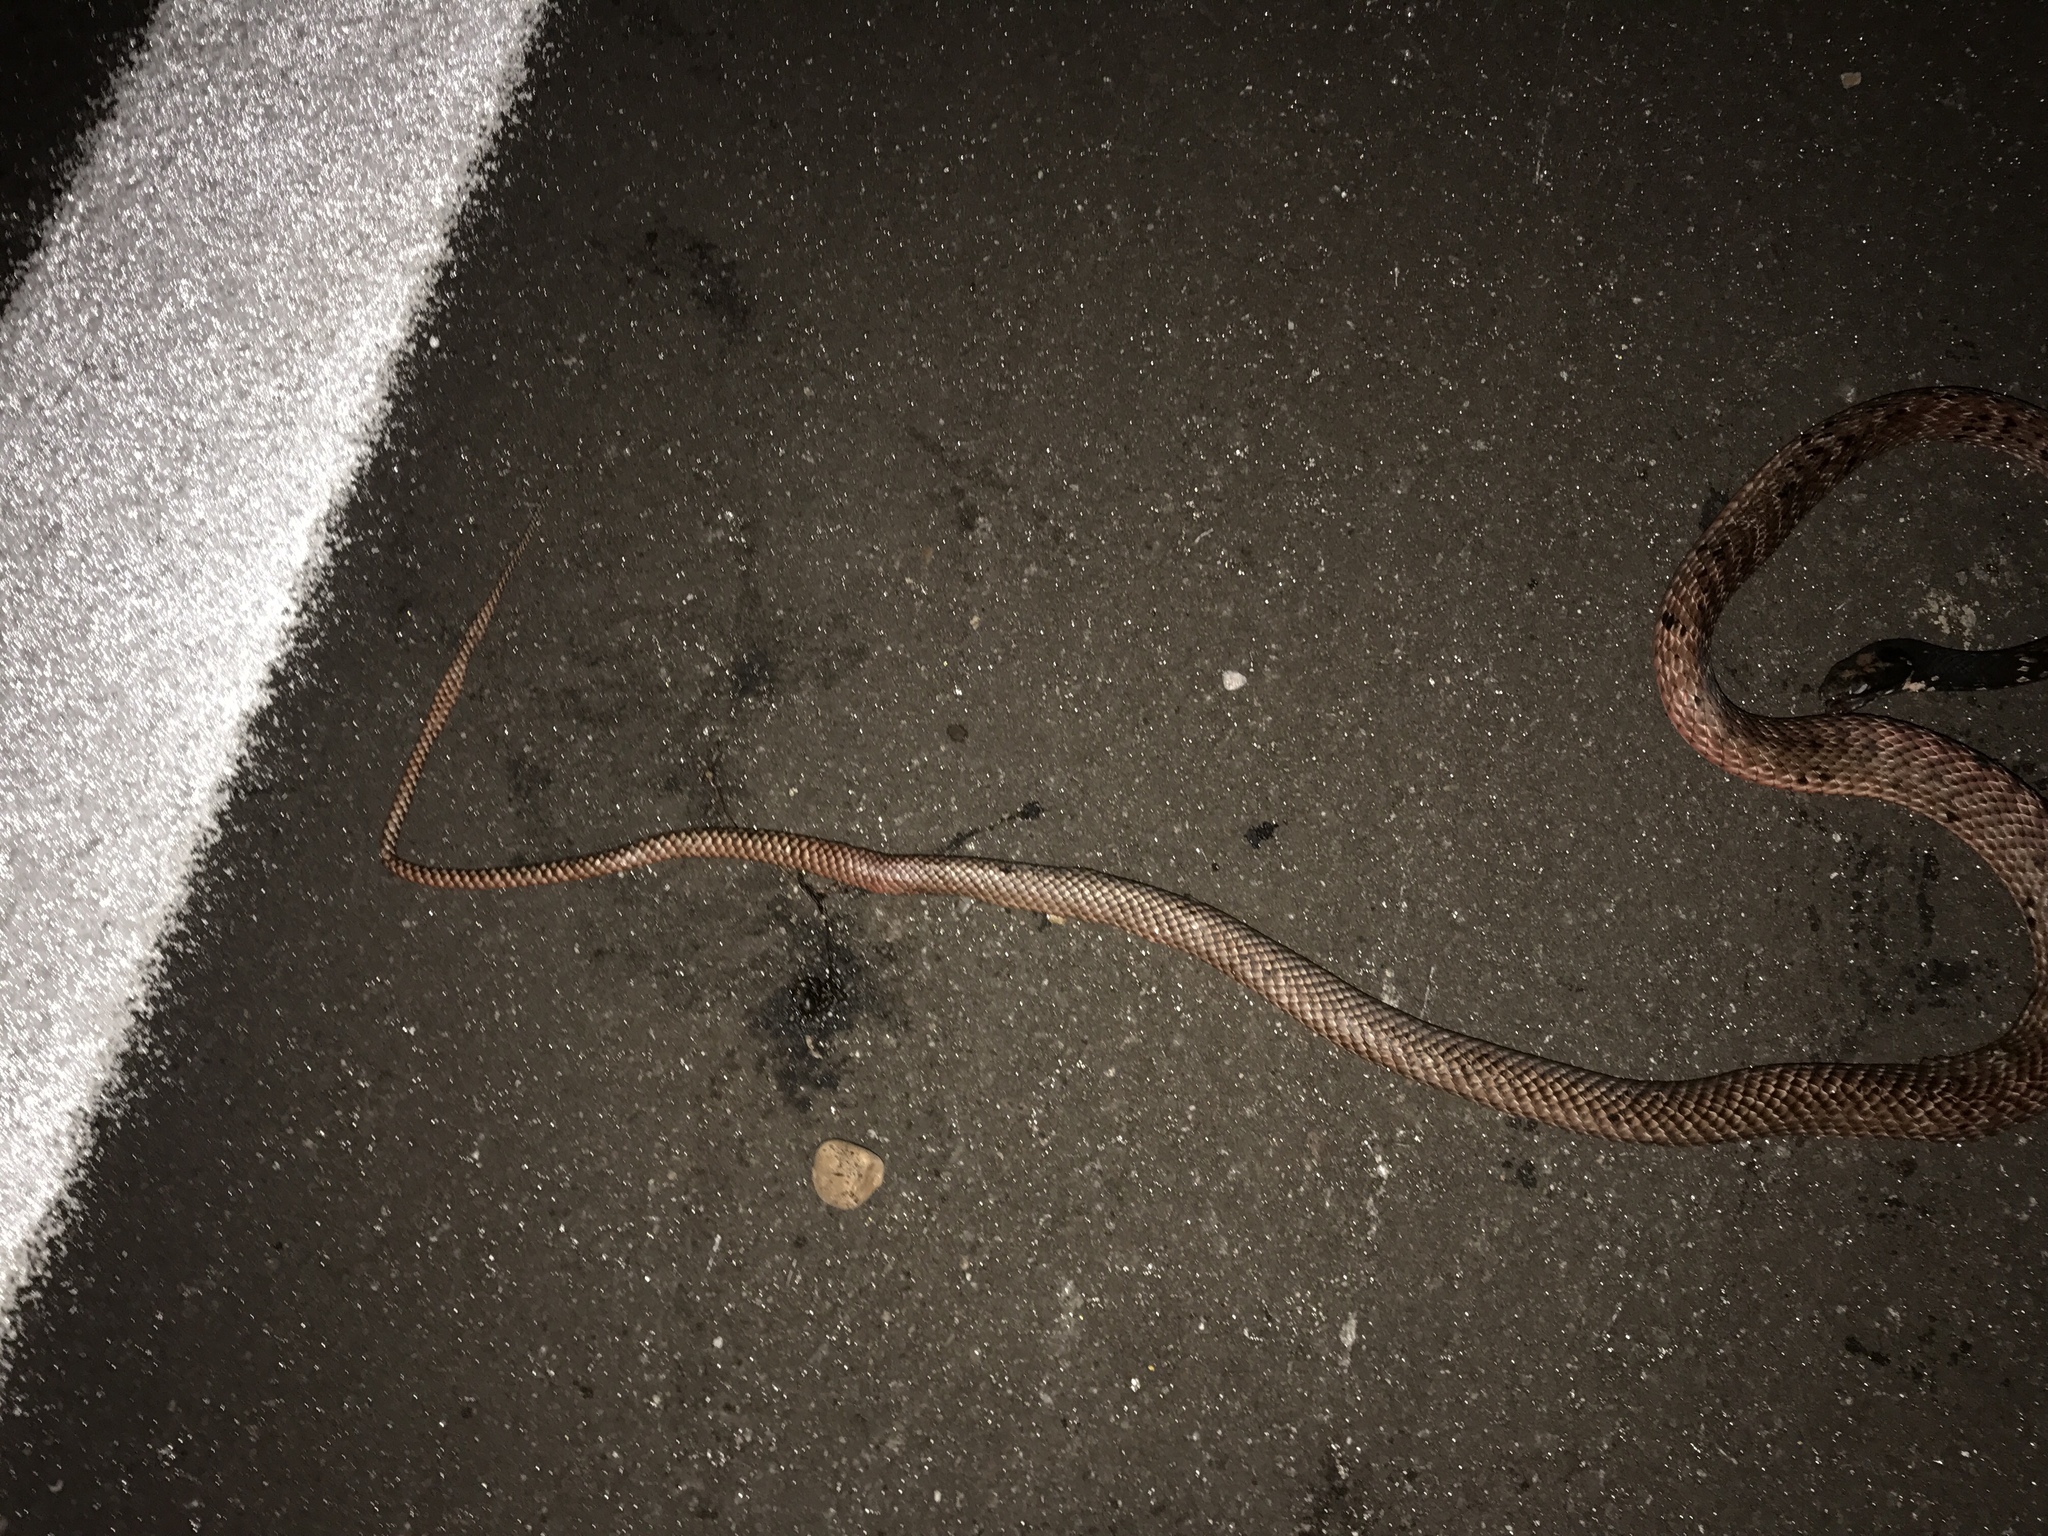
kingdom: Animalia
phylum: Chordata
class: Squamata
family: Colubridae
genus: Masticophis
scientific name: Masticophis flagellum
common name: Coachwhip
